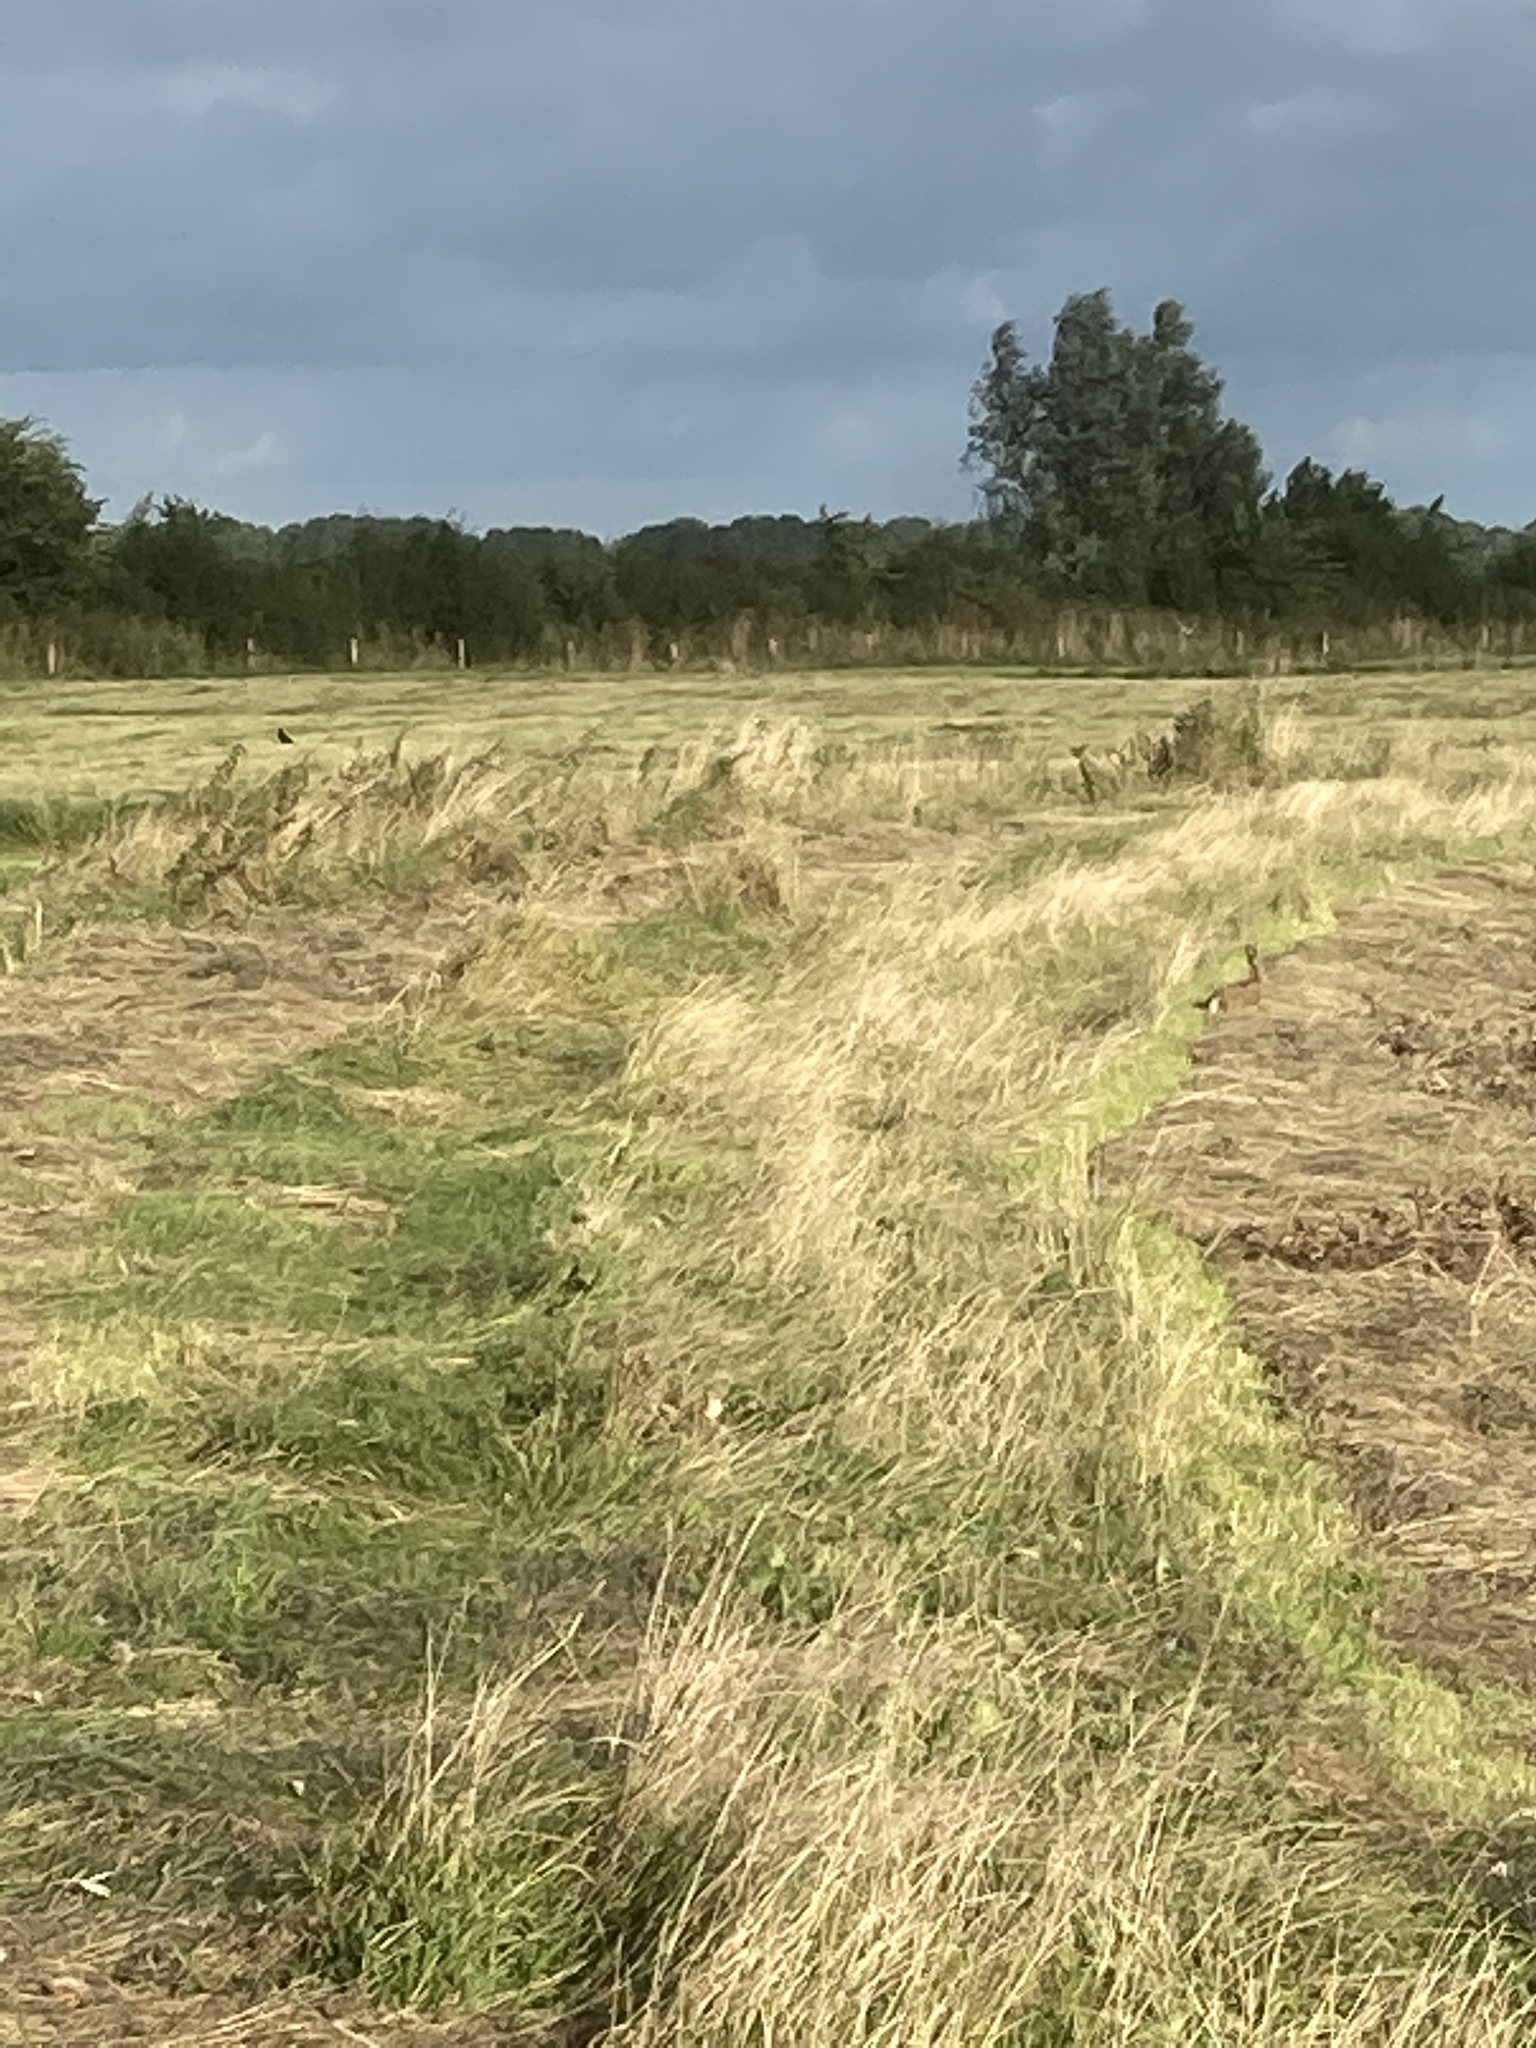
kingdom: Animalia
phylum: Chordata
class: Mammalia
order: Lagomorpha
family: Leporidae
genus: Lepus
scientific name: Lepus europaeus
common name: European hare
